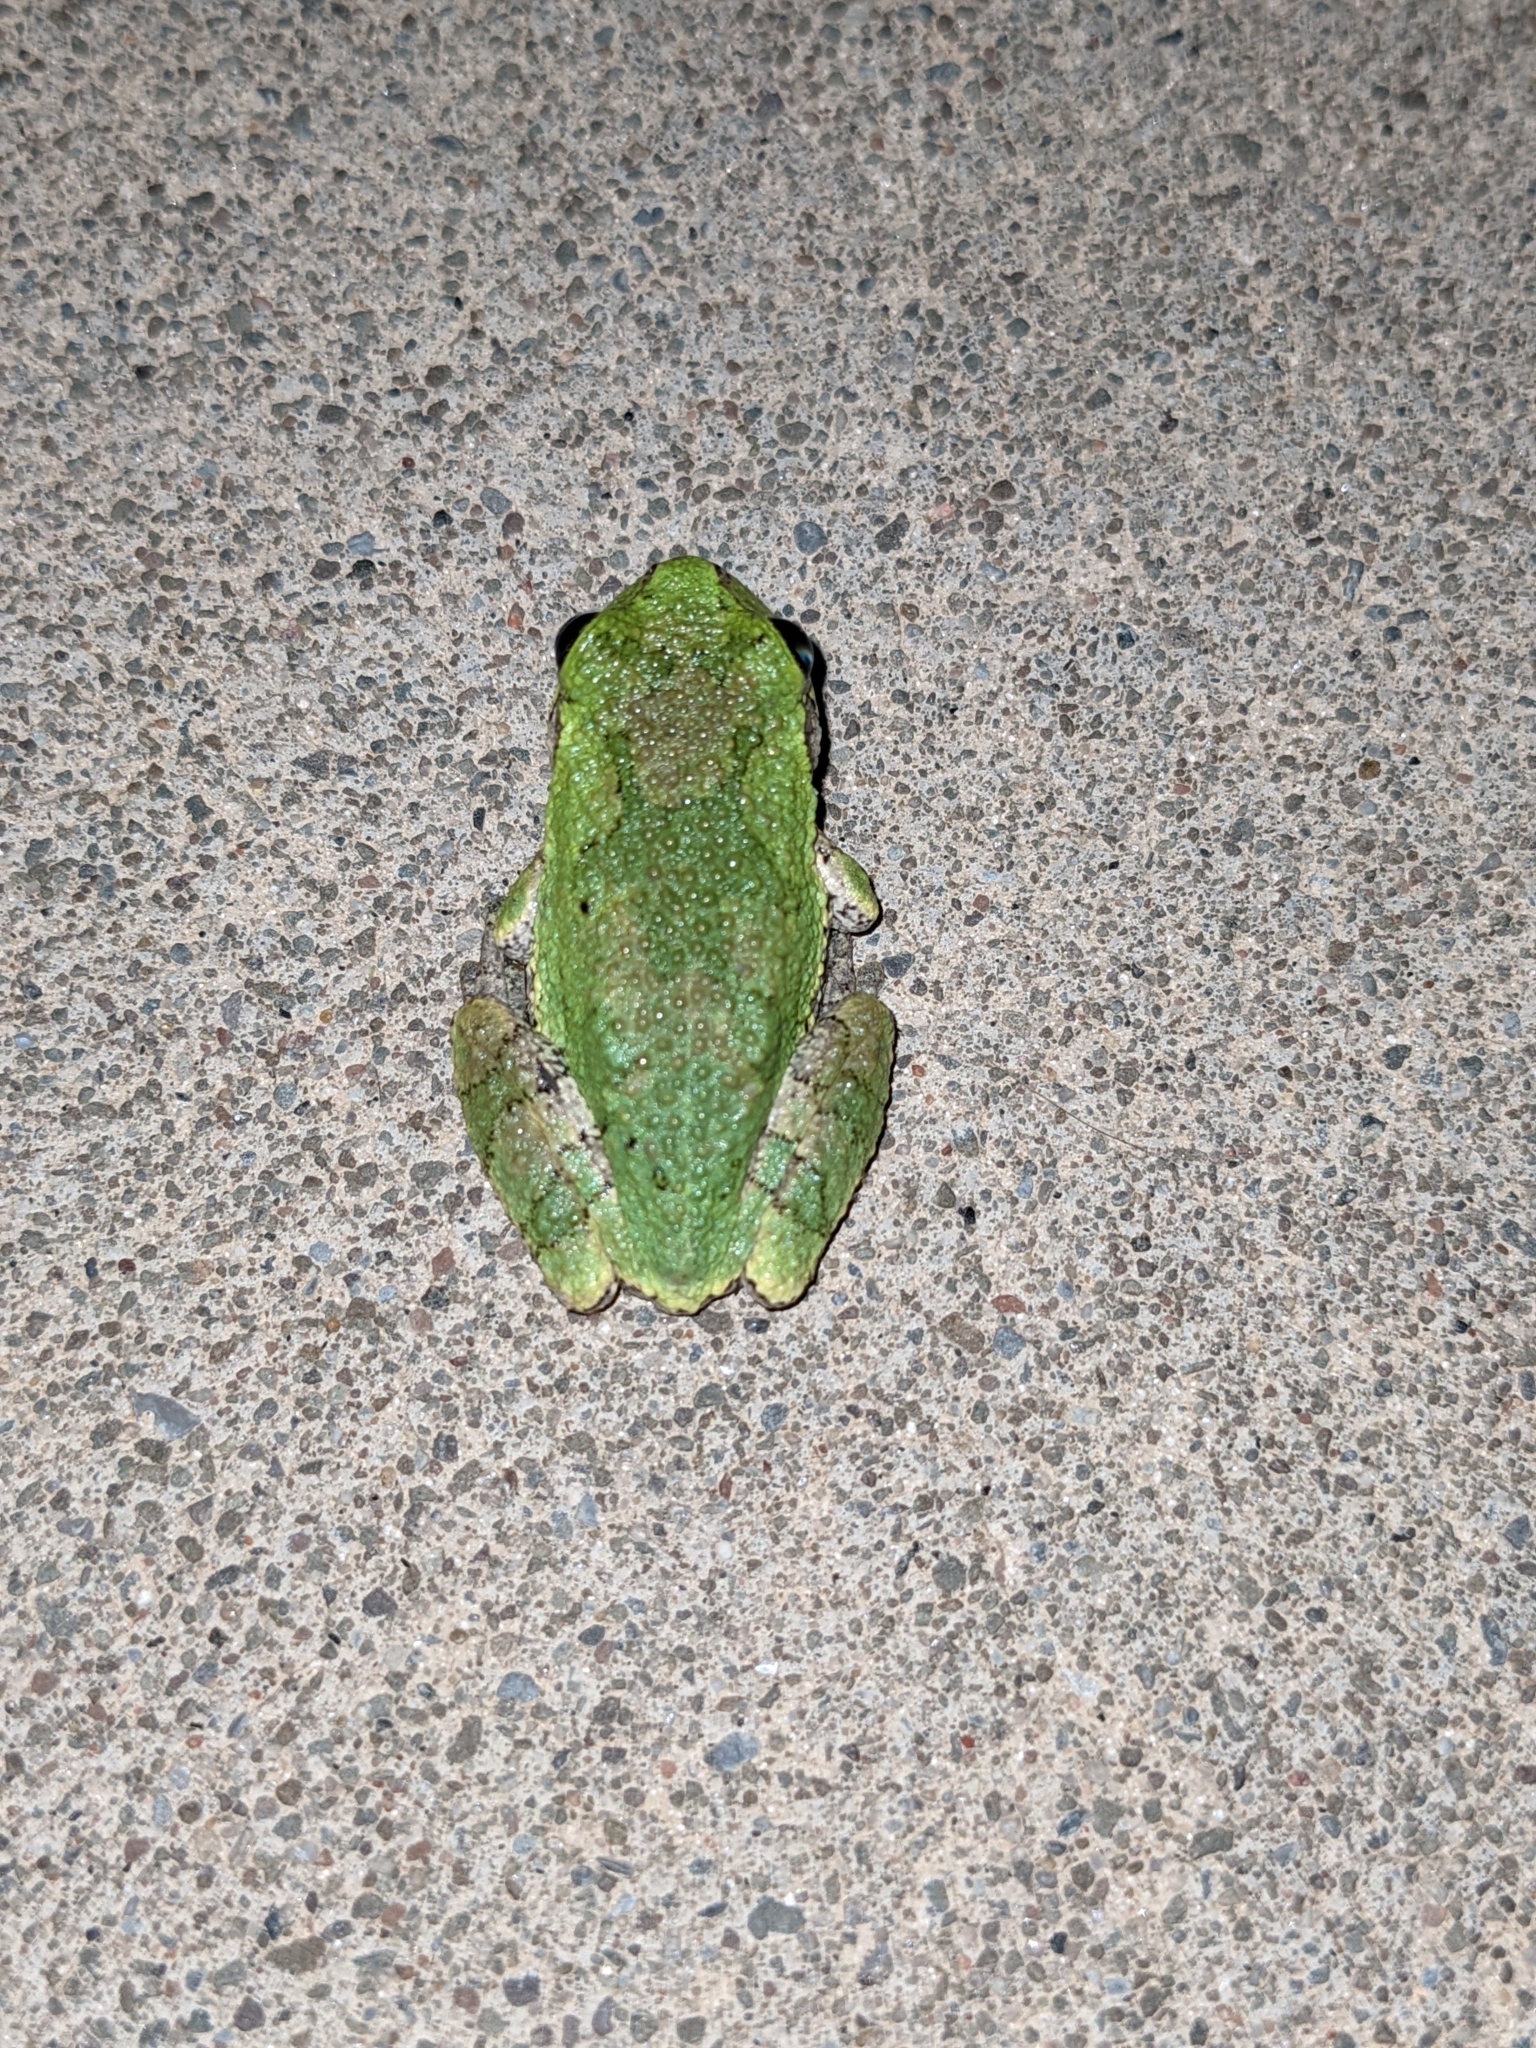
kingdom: Animalia
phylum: Chordata
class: Amphibia
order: Anura
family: Hylidae
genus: Dryophytes
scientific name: Dryophytes versicolor
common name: Gray treefrog
